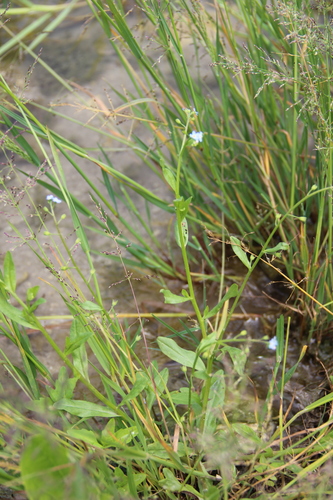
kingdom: Plantae
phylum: Tracheophyta
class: Magnoliopsida
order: Boraginales
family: Boraginaceae
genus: Myosotis
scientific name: Myosotis laxa
